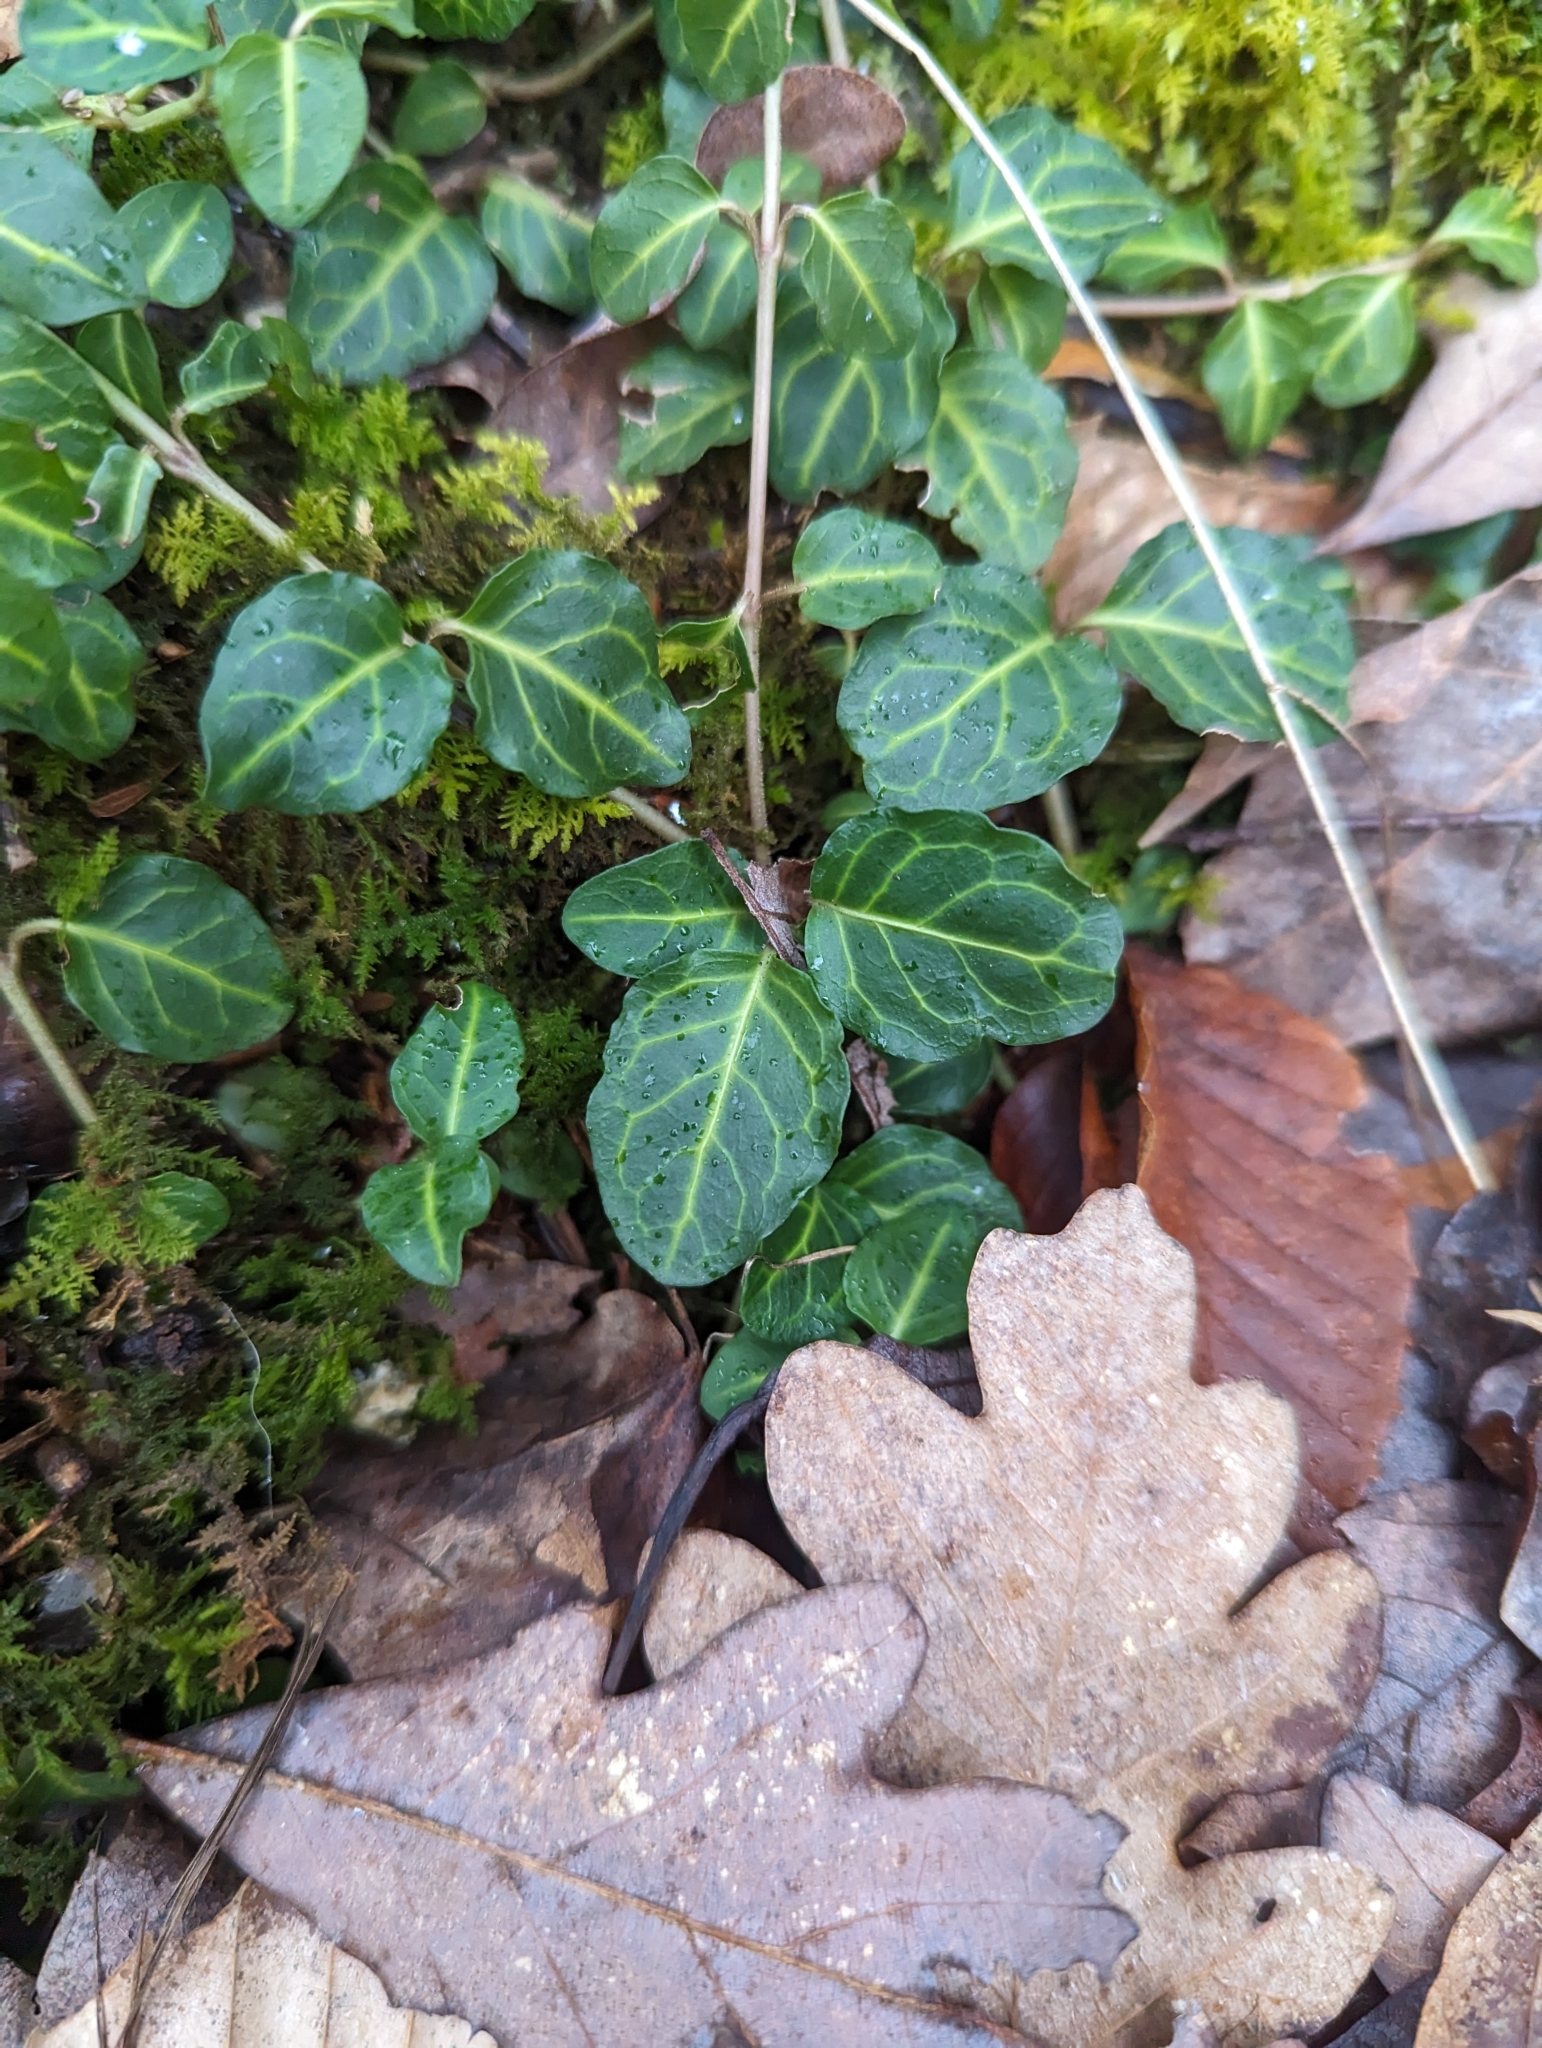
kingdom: Plantae
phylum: Tracheophyta
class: Magnoliopsida
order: Gentianales
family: Rubiaceae
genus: Mitchella
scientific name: Mitchella repens
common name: Partridge-berry
